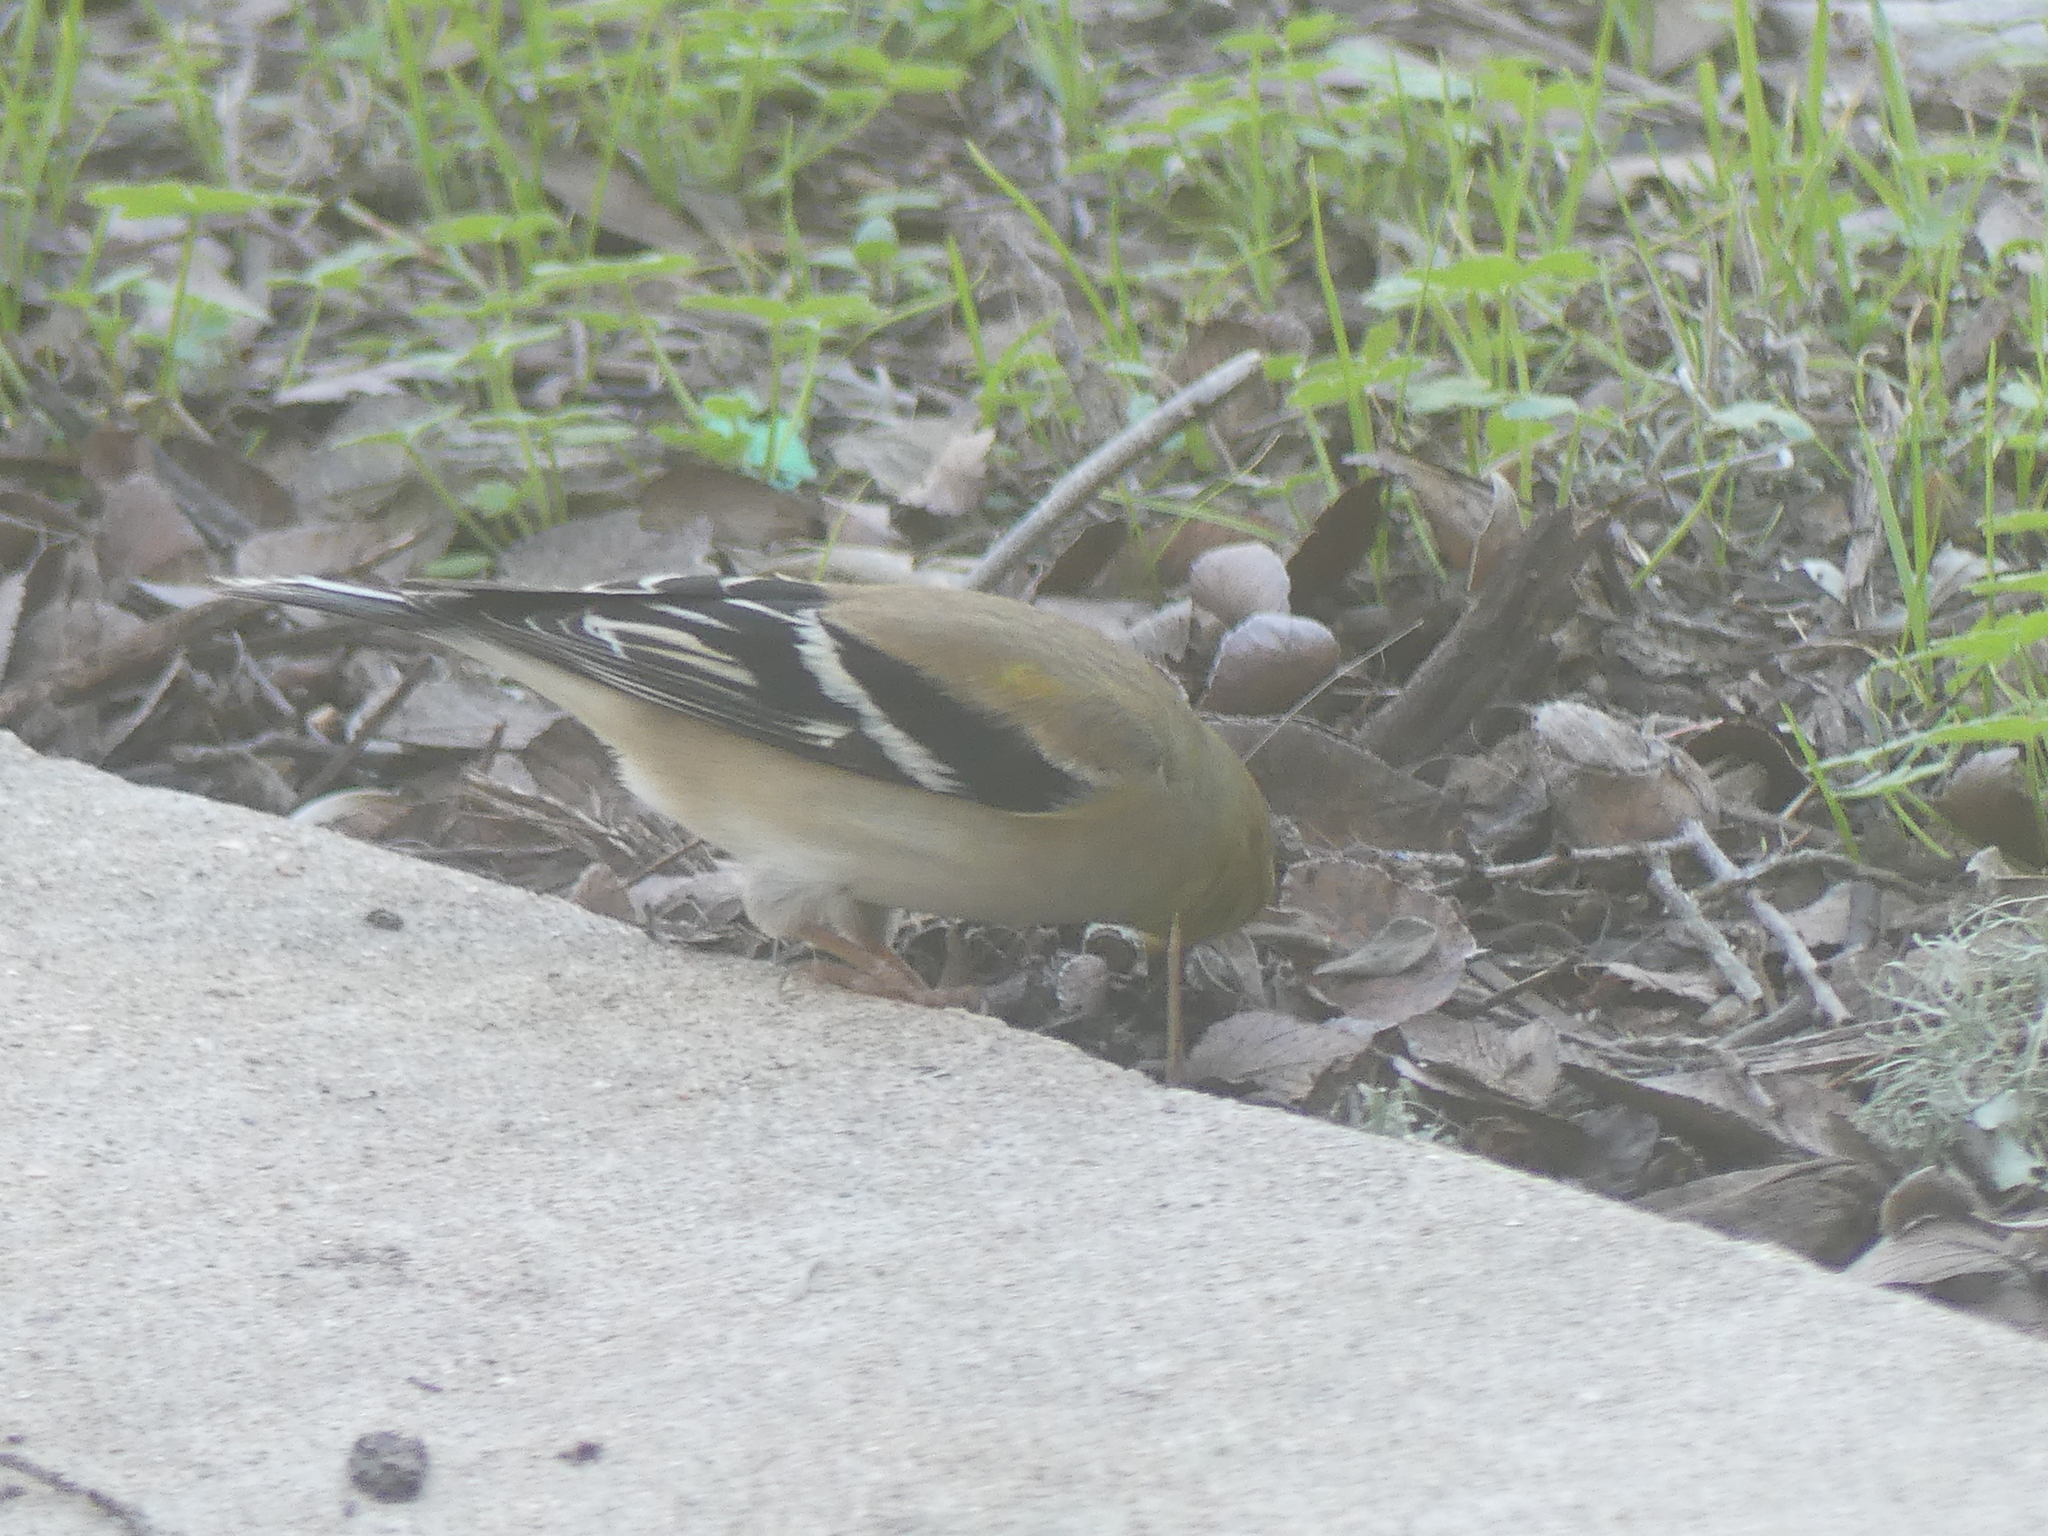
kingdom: Animalia
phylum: Chordata
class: Aves
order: Passeriformes
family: Fringillidae
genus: Spinus
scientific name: Spinus tristis
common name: American goldfinch
